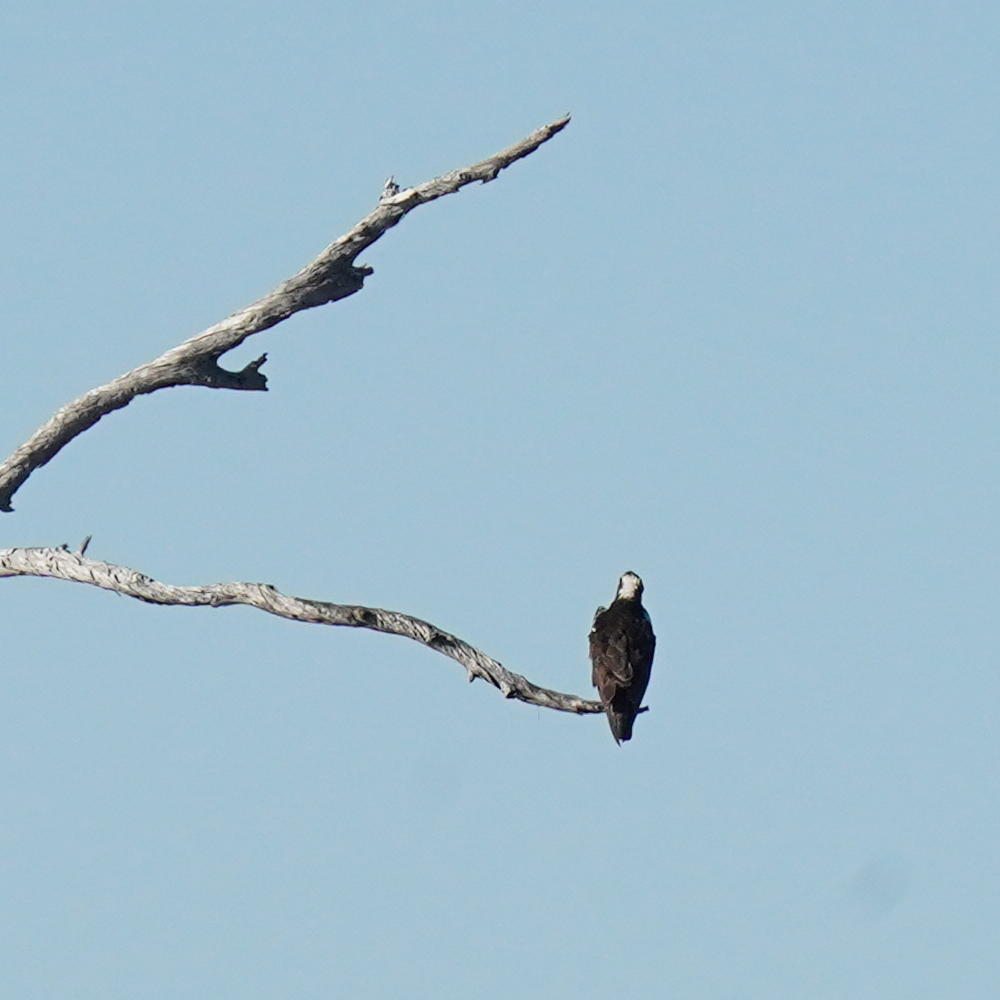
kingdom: Animalia
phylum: Chordata
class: Aves
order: Accipitriformes
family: Pandionidae
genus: Pandion
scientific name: Pandion haliaetus
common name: Osprey
